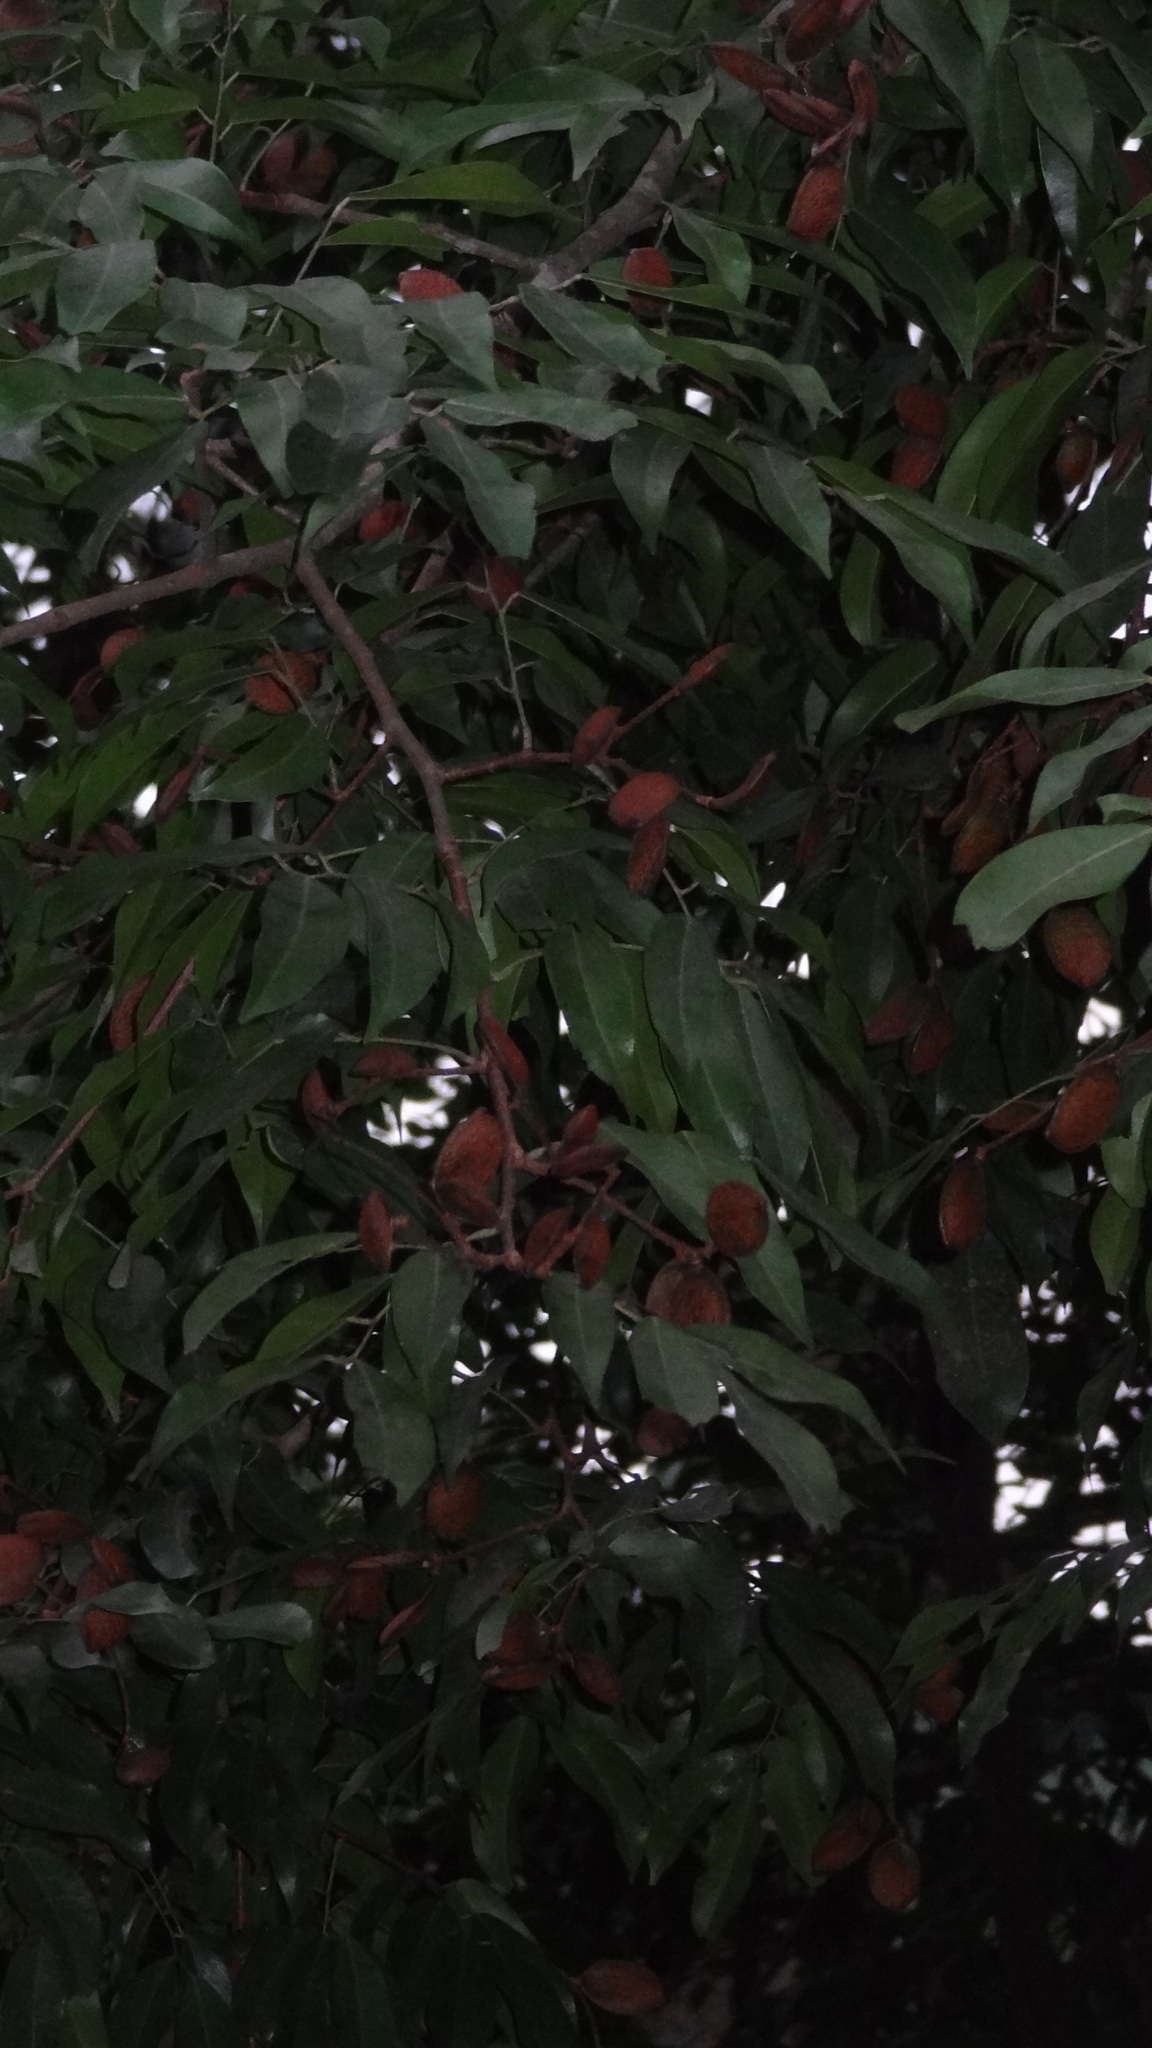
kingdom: Plantae
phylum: Tracheophyta
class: Magnoliopsida
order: Fabales
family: Fabaceae
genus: Prioria
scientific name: Prioria pinnata
